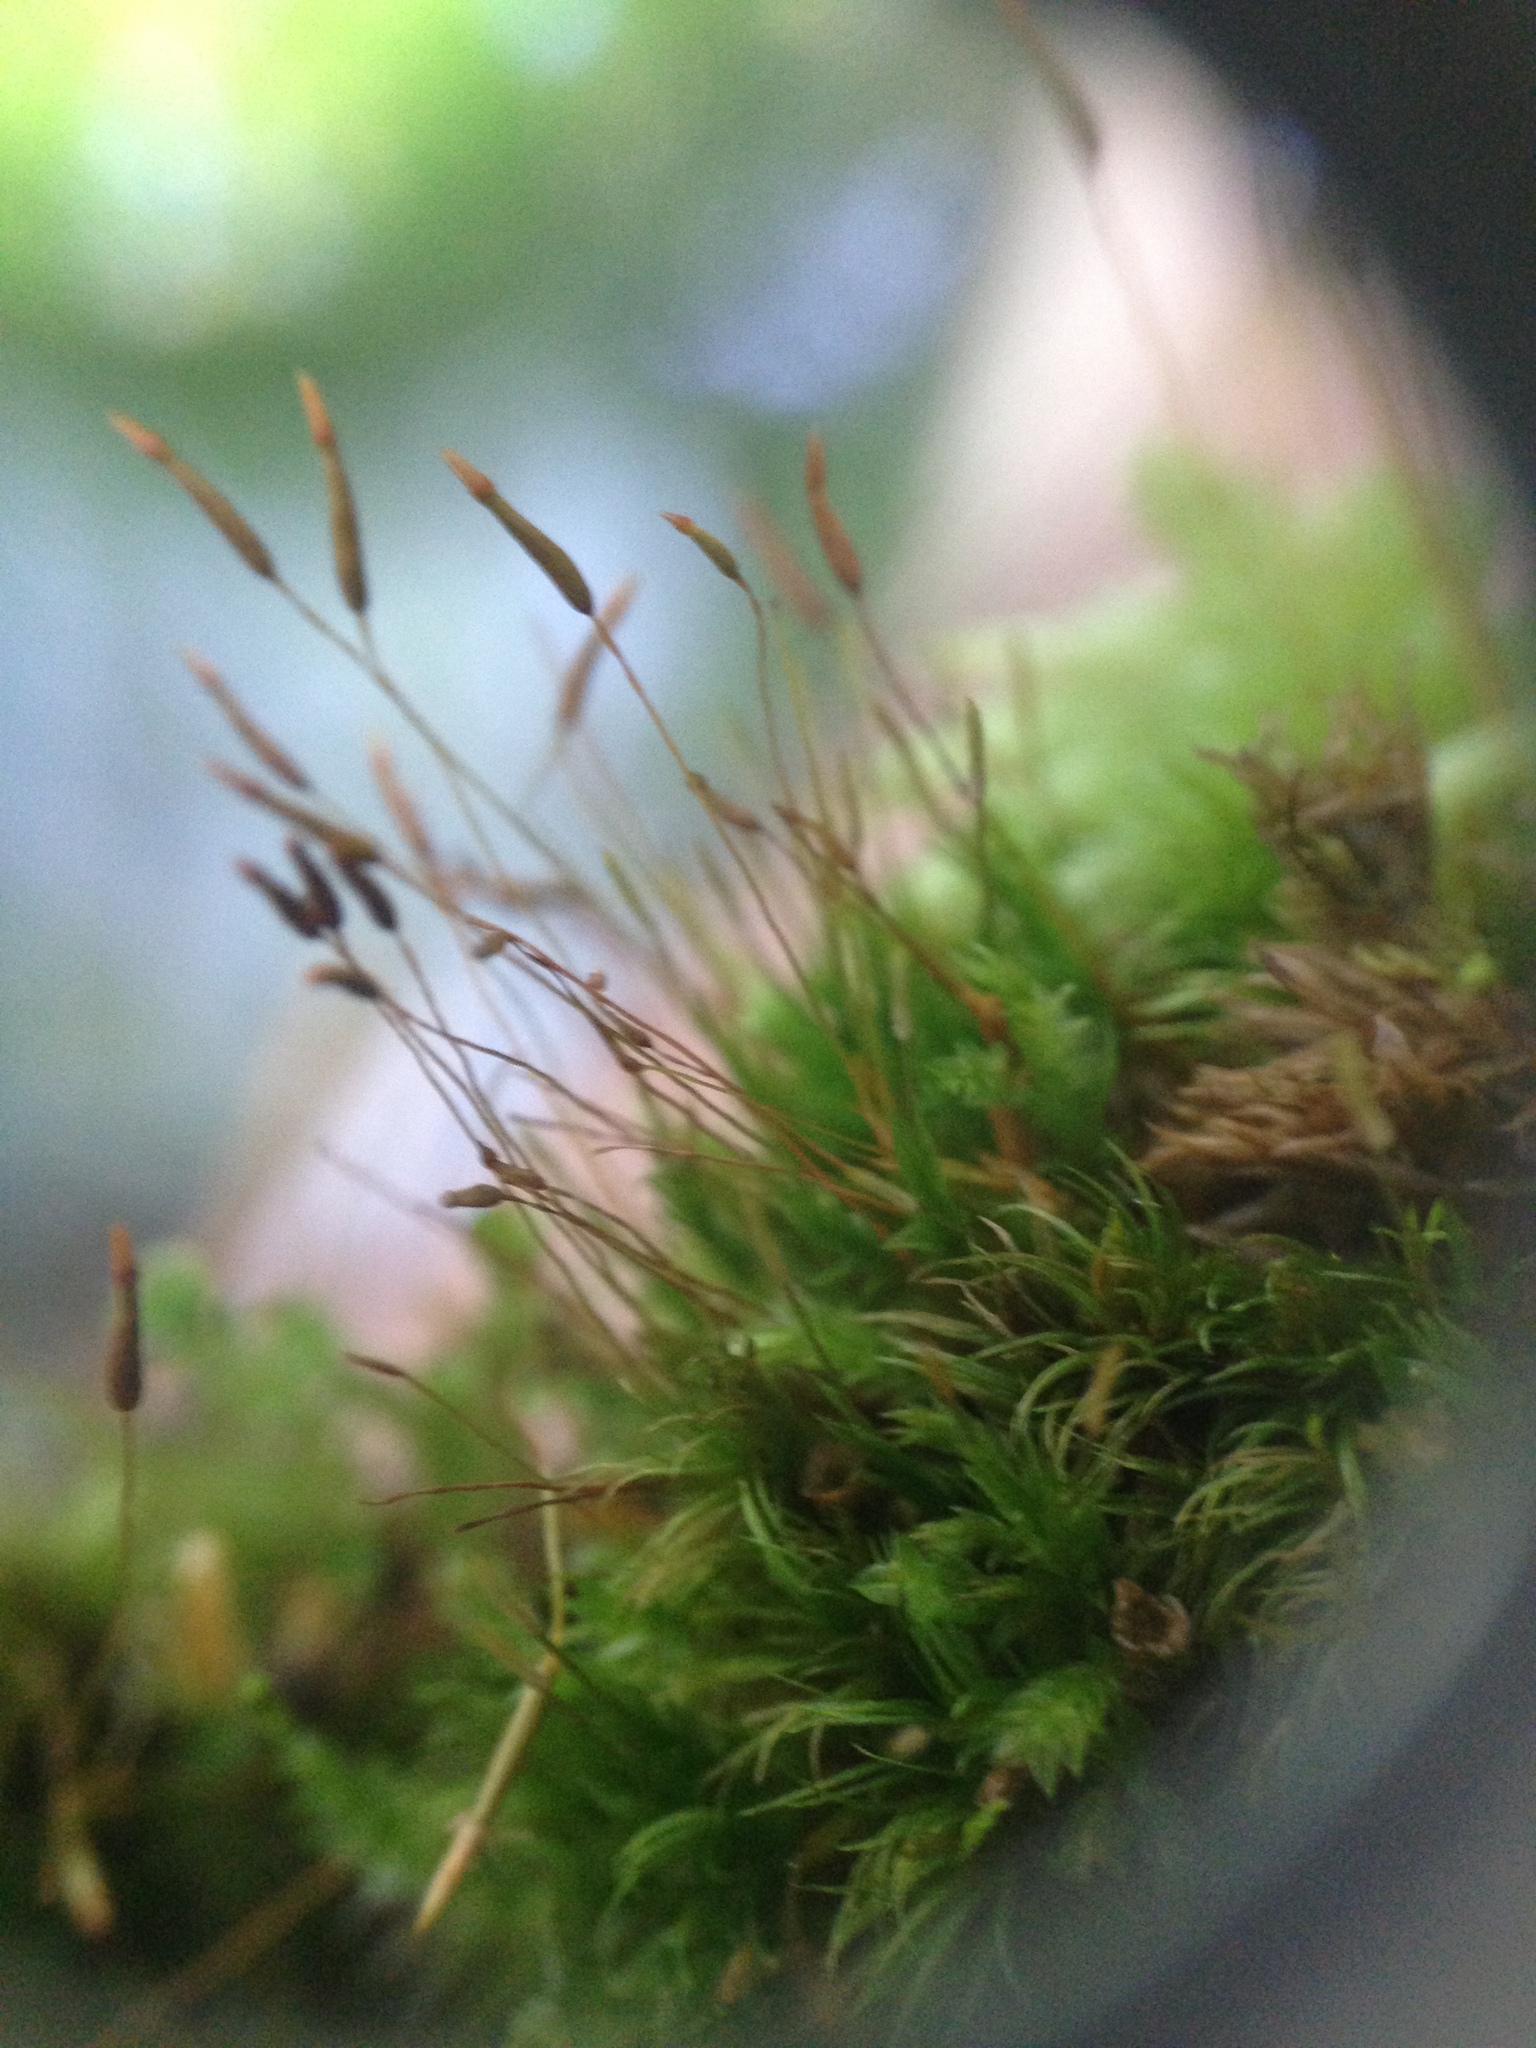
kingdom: Plantae
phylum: Bryophyta
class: Polytrichopsida
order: Tetraphidales
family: Tetraphidaceae
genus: Tetraphis
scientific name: Tetraphis pellucida
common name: Common four-toothed moss
